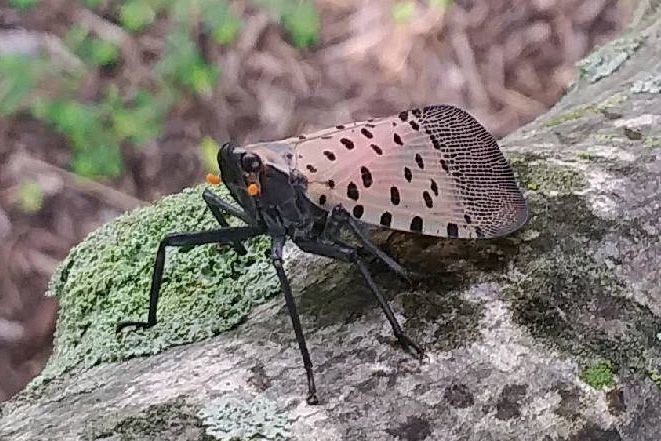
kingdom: Animalia
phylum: Arthropoda
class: Insecta
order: Hemiptera
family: Fulgoridae
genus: Lycorma
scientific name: Lycorma delicatula
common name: Spotted lanternfly
